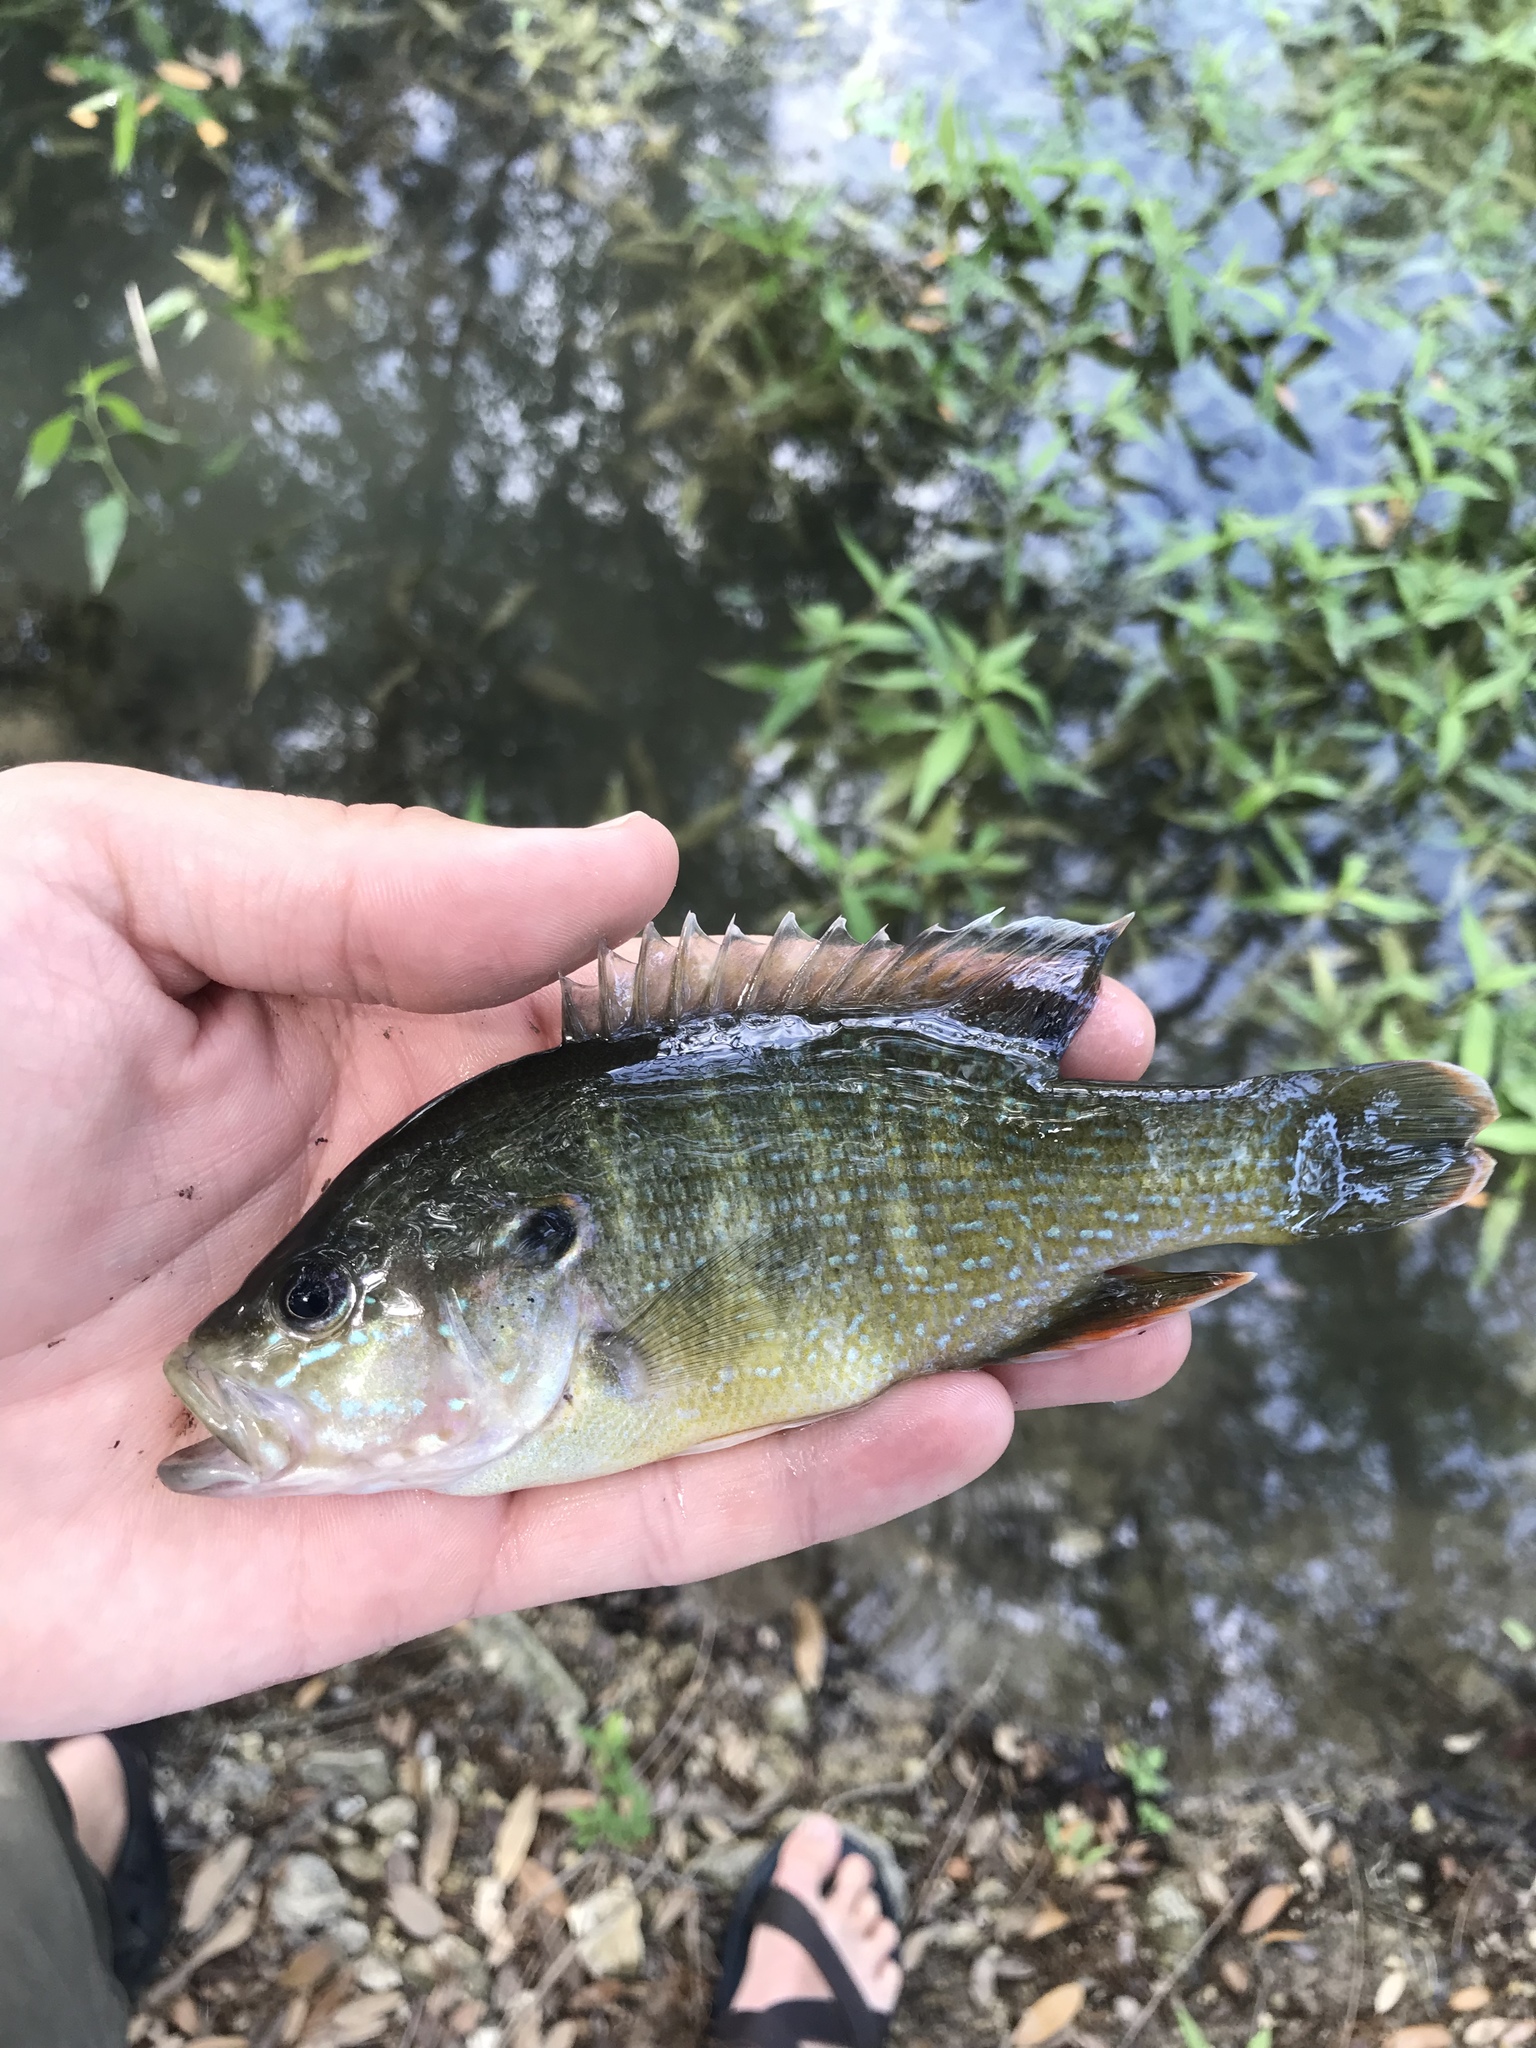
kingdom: Animalia
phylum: Chordata
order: Perciformes
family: Centrarchidae
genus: Lepomis
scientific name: Lepomis cyanellus
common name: Green sunfish
